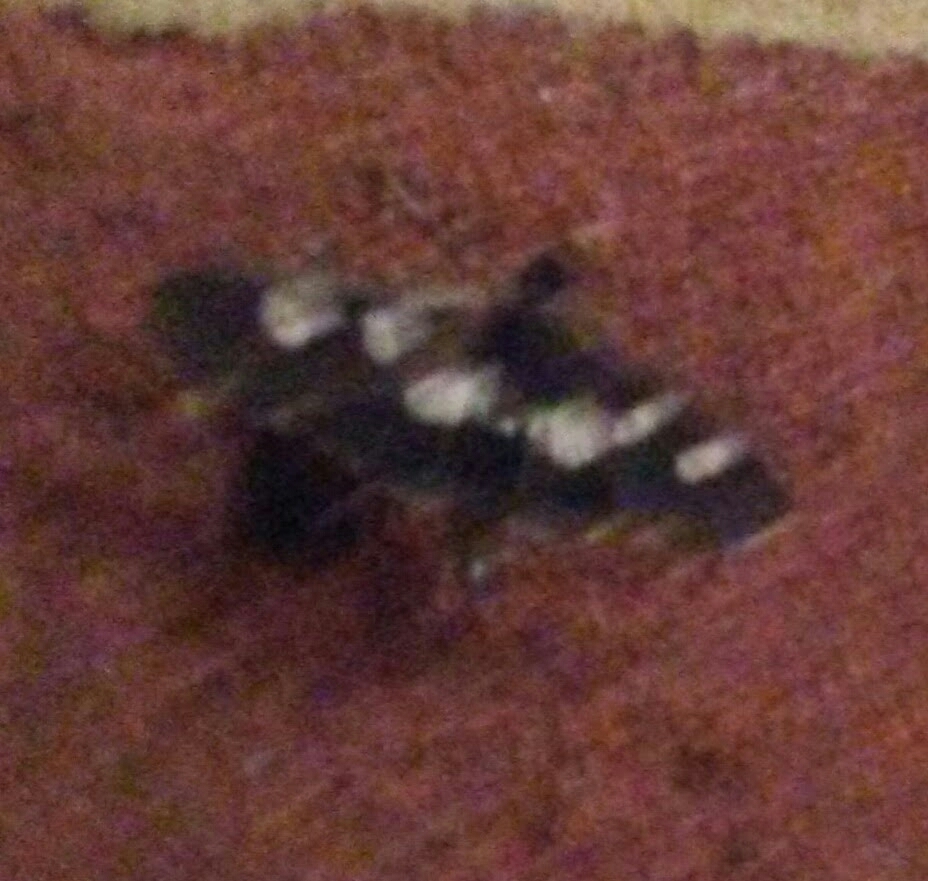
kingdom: Animalia
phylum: Arthropoda
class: Insecta
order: Lepidoptera
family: Crambidae
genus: Desmia
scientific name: Desmia
